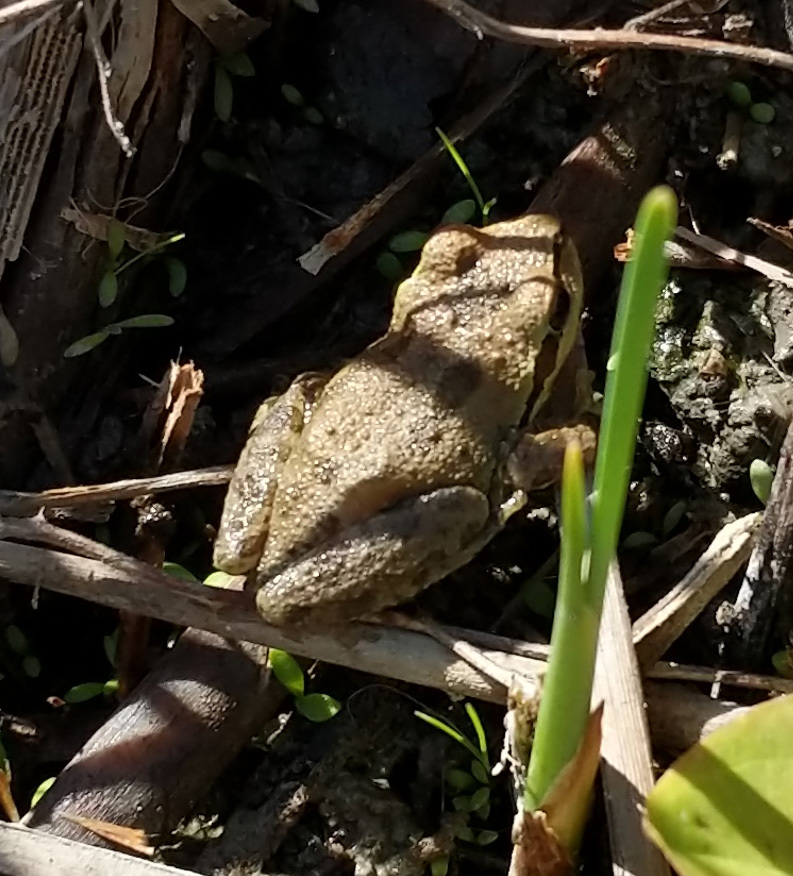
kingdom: Animalia
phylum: Chordata
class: Amphibia
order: Anura
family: Hylidae
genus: Pseudacris
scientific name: Pseudacris regilla
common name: Pacific chorus frog
